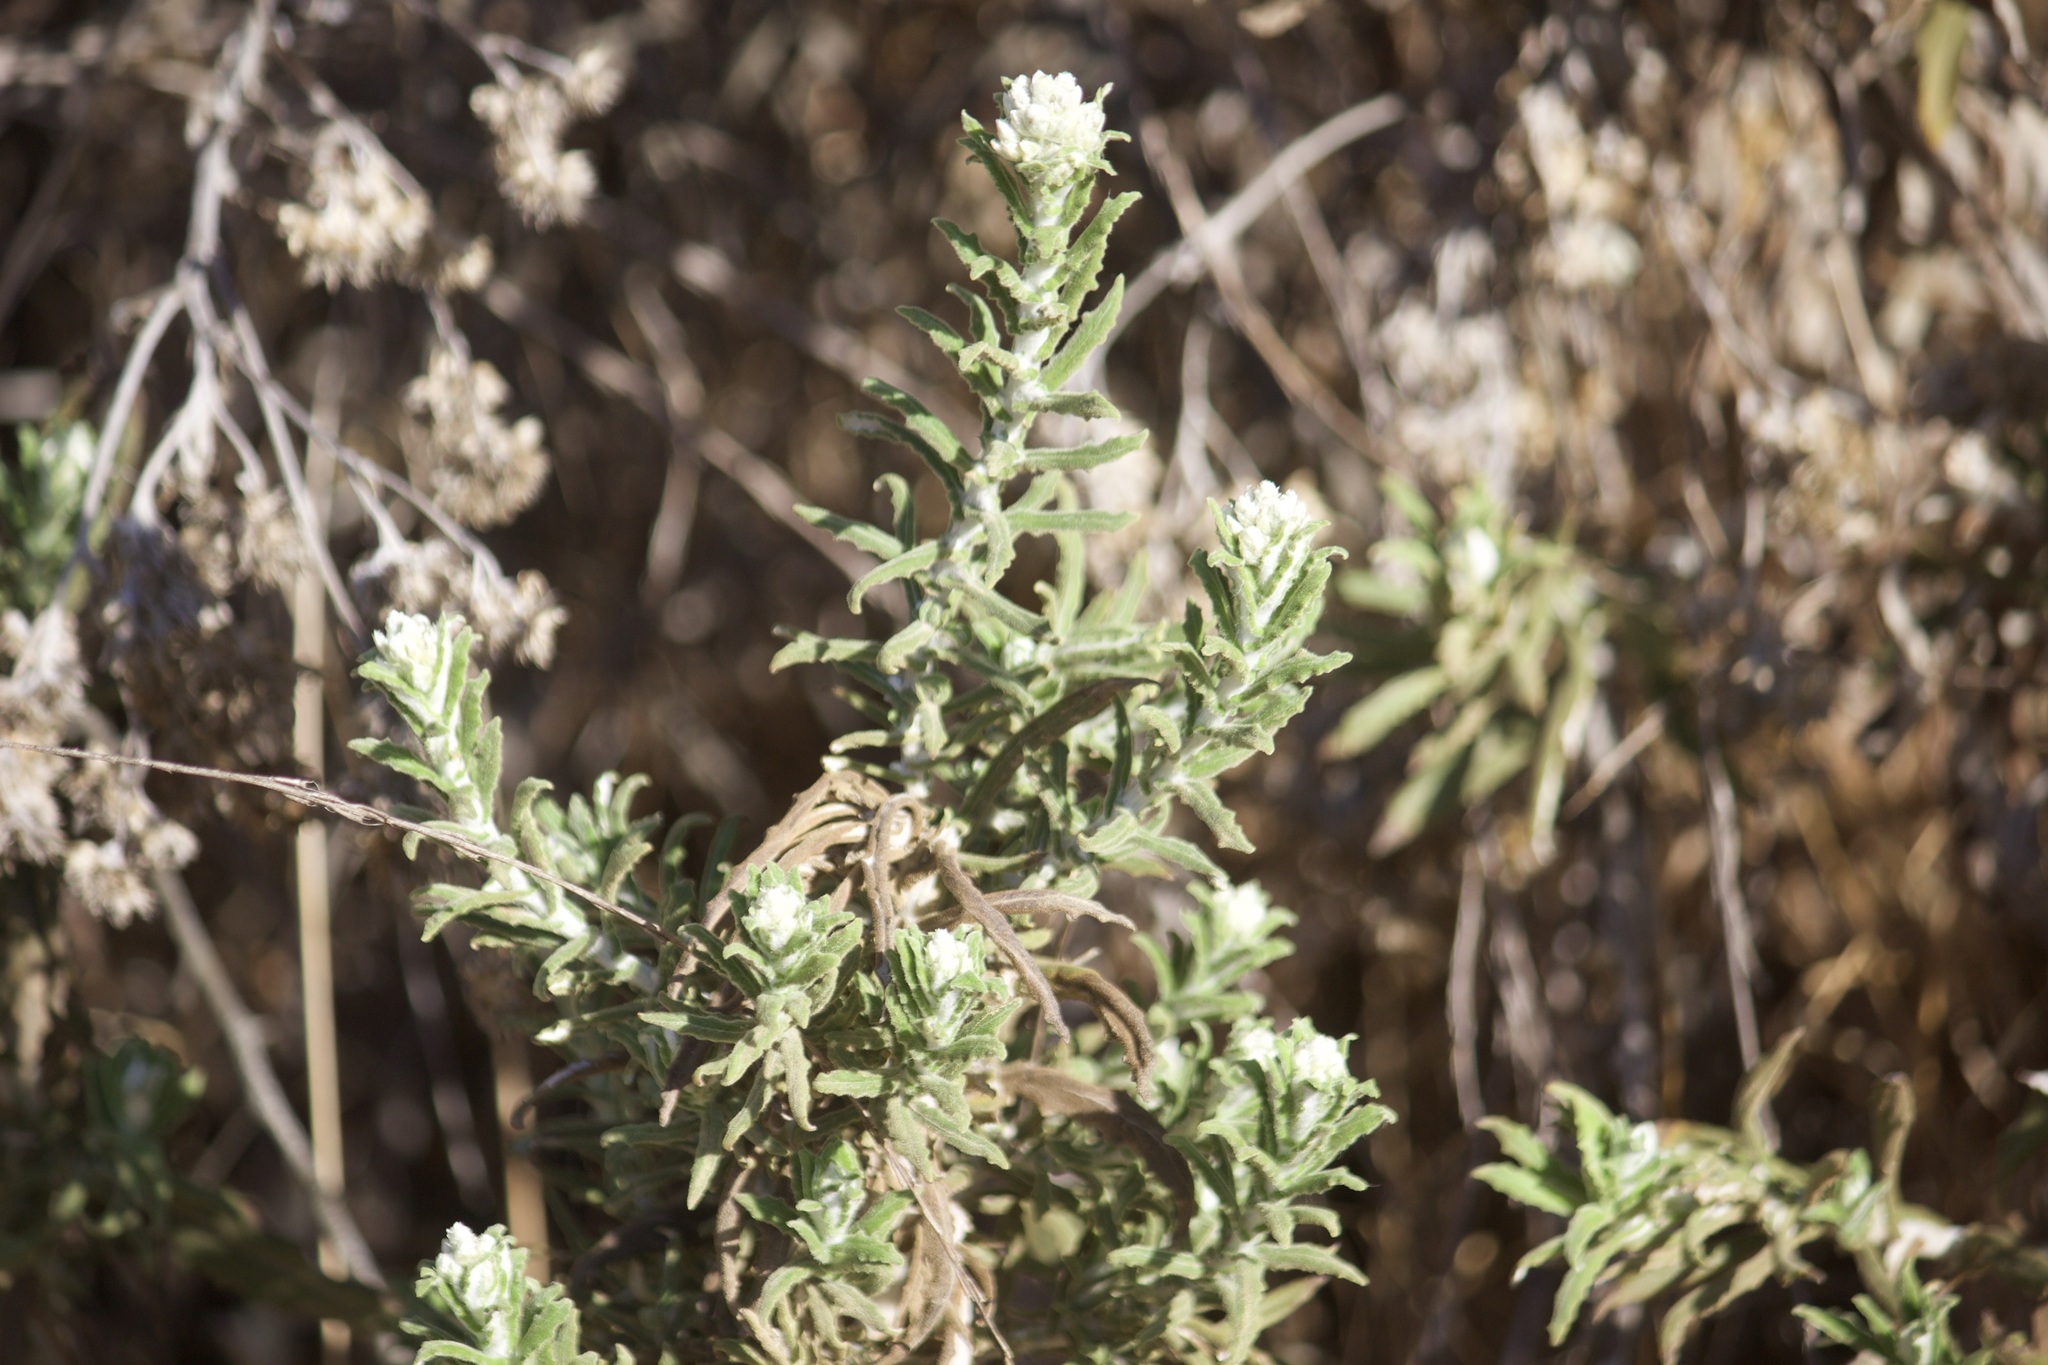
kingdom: Plantae
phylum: Tracheophyta
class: Magnoliopsida
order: Asterales
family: Asteraceae
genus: Pseudognaphalium
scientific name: Pseudognaphalium biolettii
